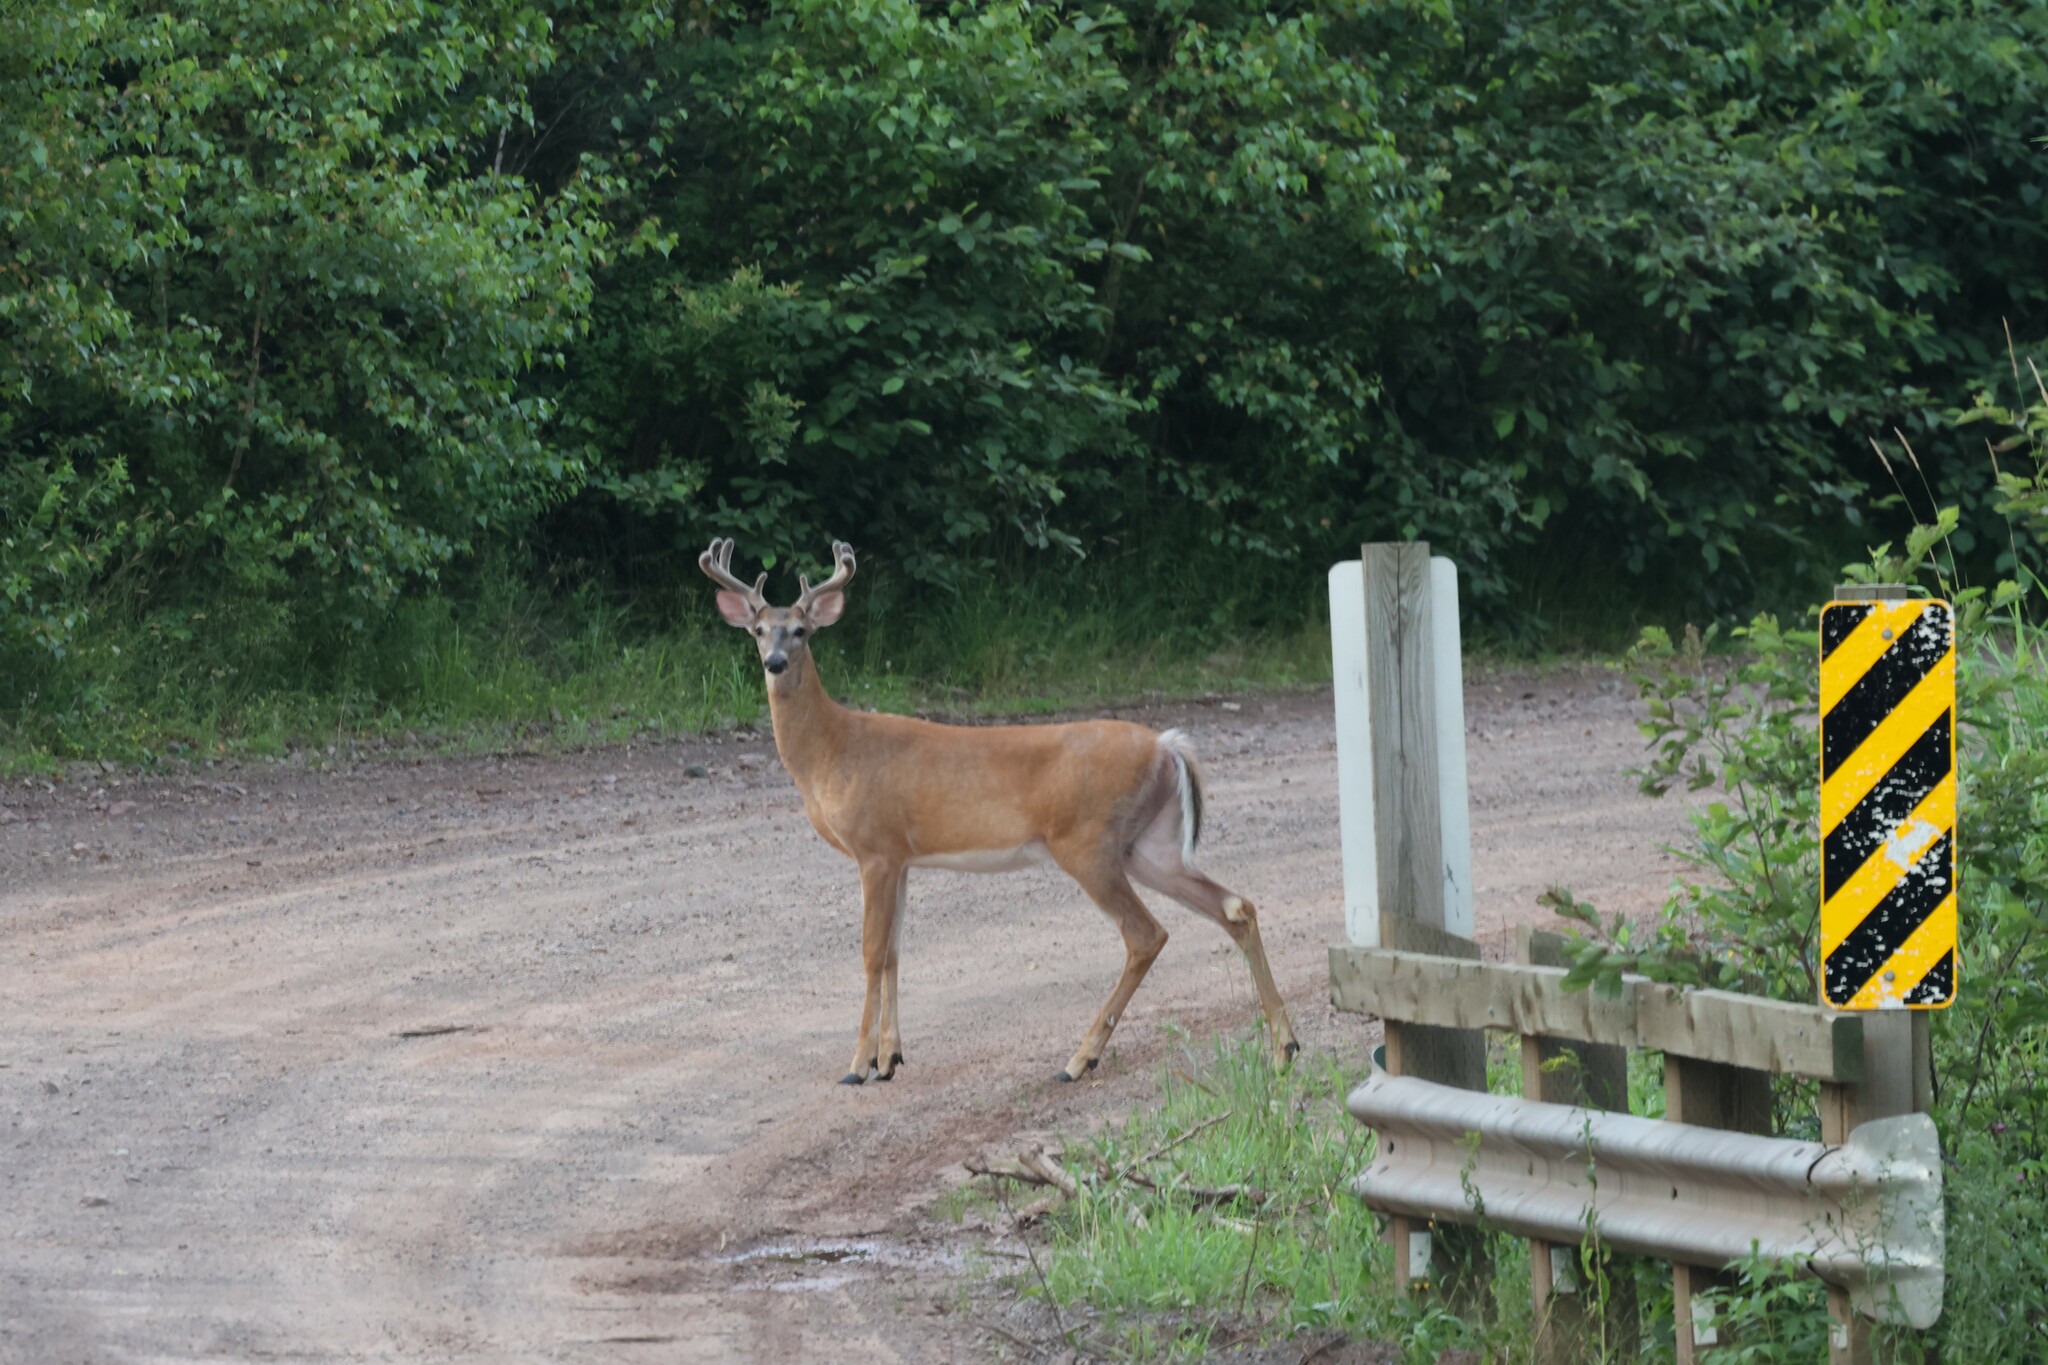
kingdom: Animalia
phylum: Chordata
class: Mammalia
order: Artiodactyla
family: Cervidae
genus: Odocoileus
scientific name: Odocoileus virginianus
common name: White-tailed deer
